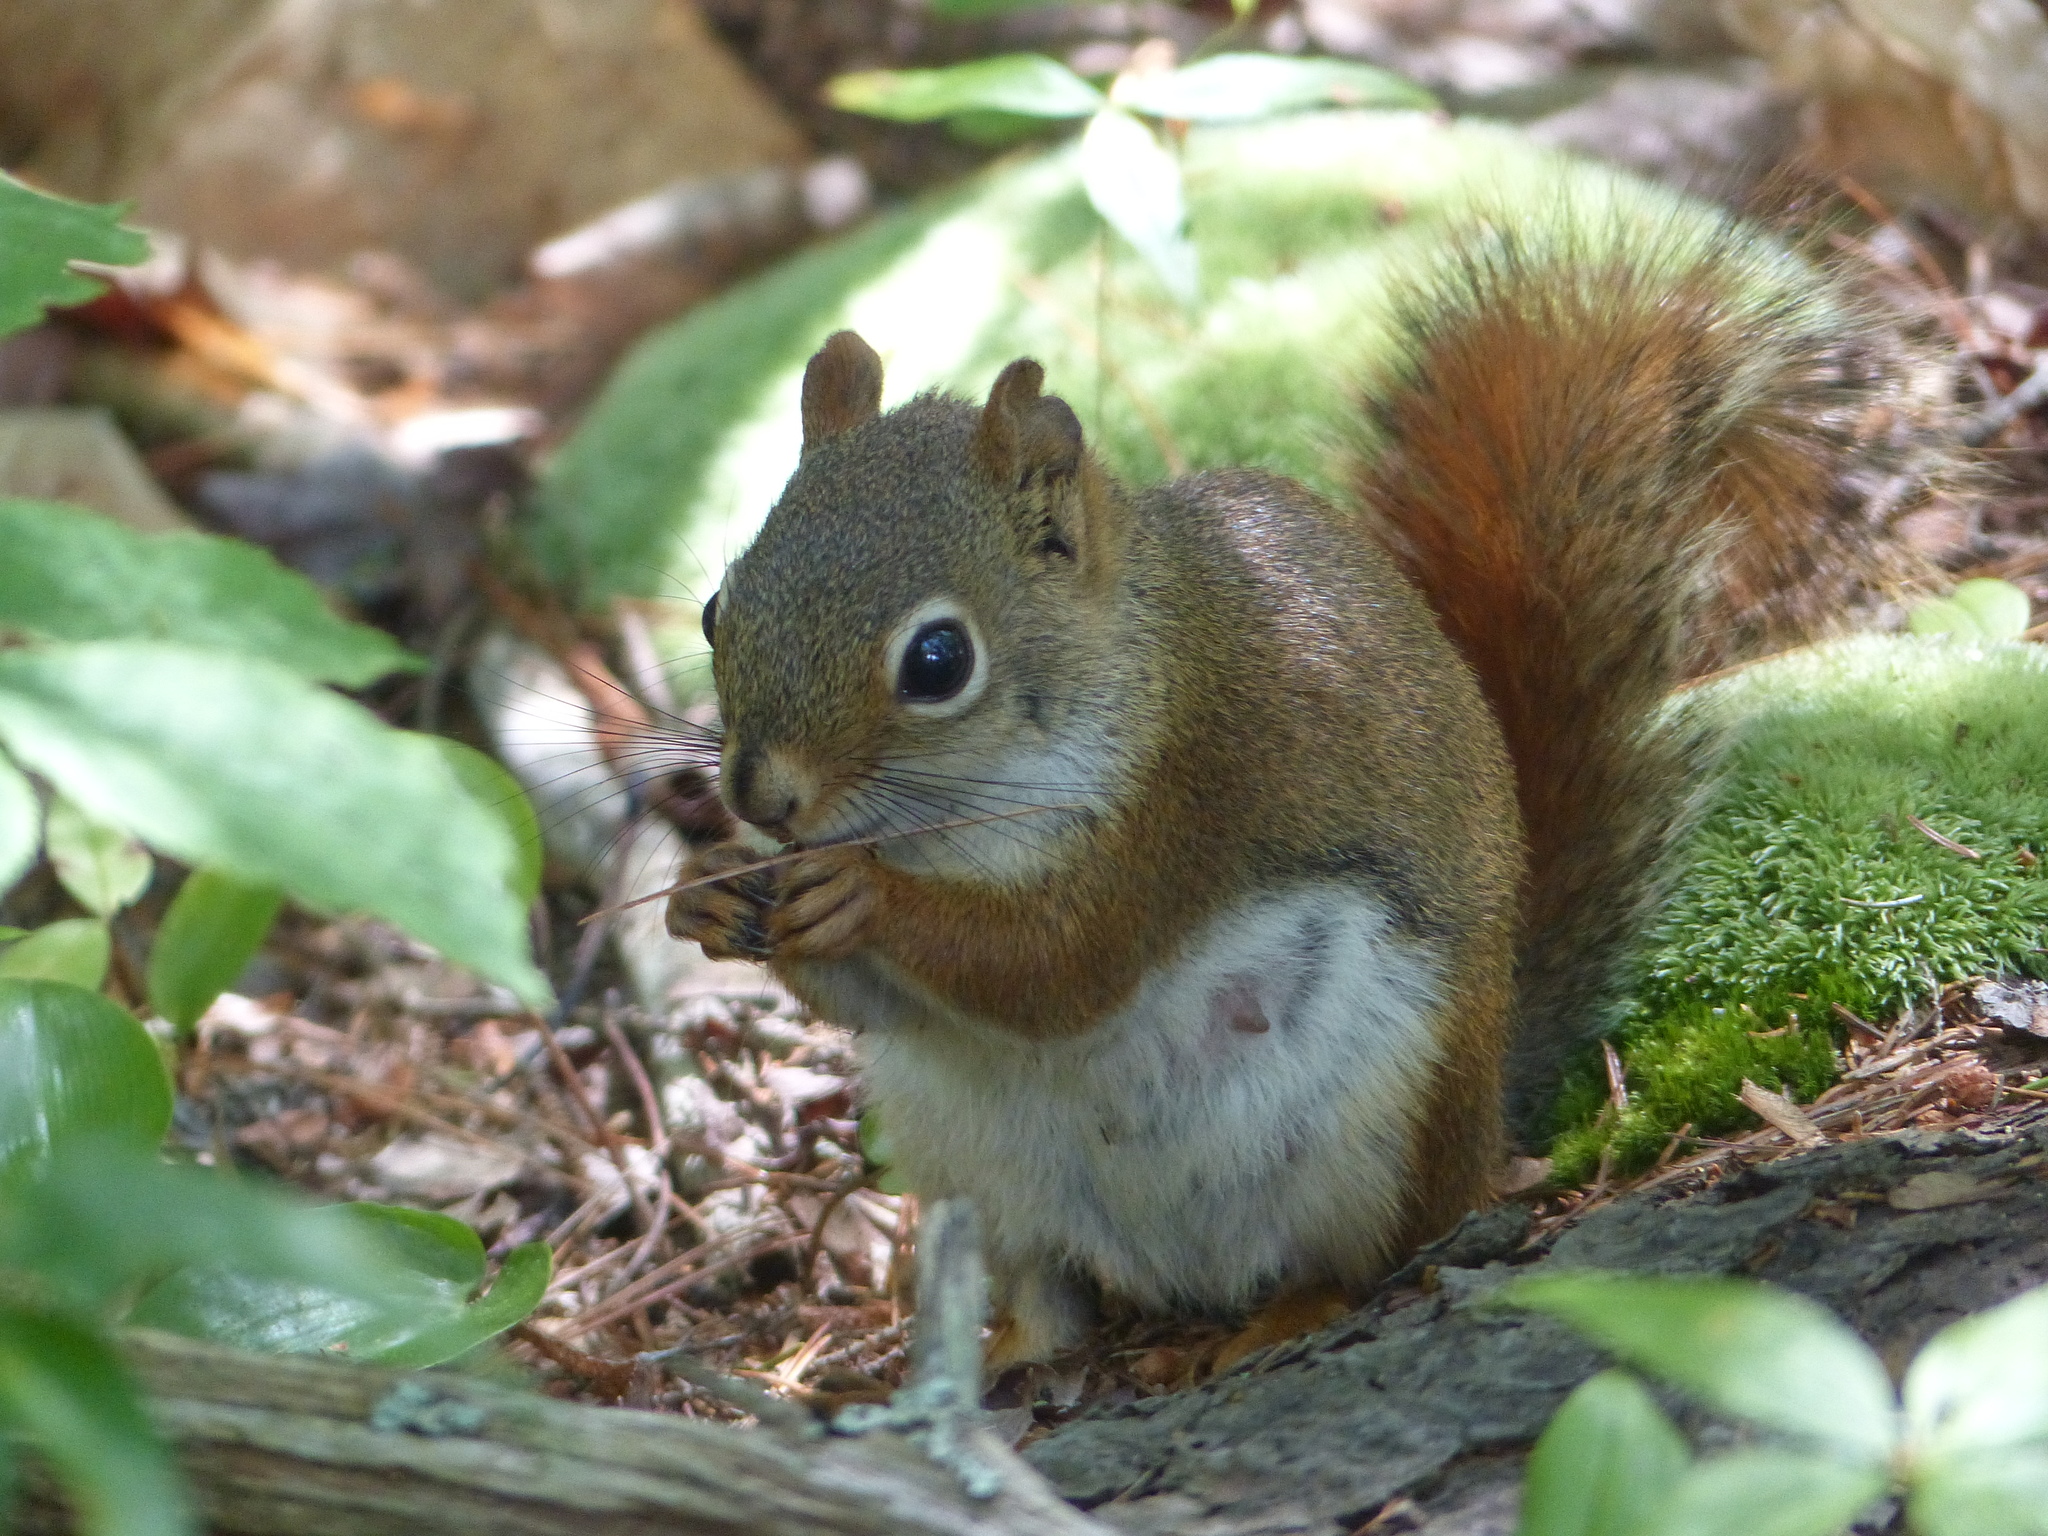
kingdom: Animalia
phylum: Chordata
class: Mammalia
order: Rodentia
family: Sciuridae
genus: Tamiasciurus
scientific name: Tamiasciurus hudsonicus
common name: Red squirrel
